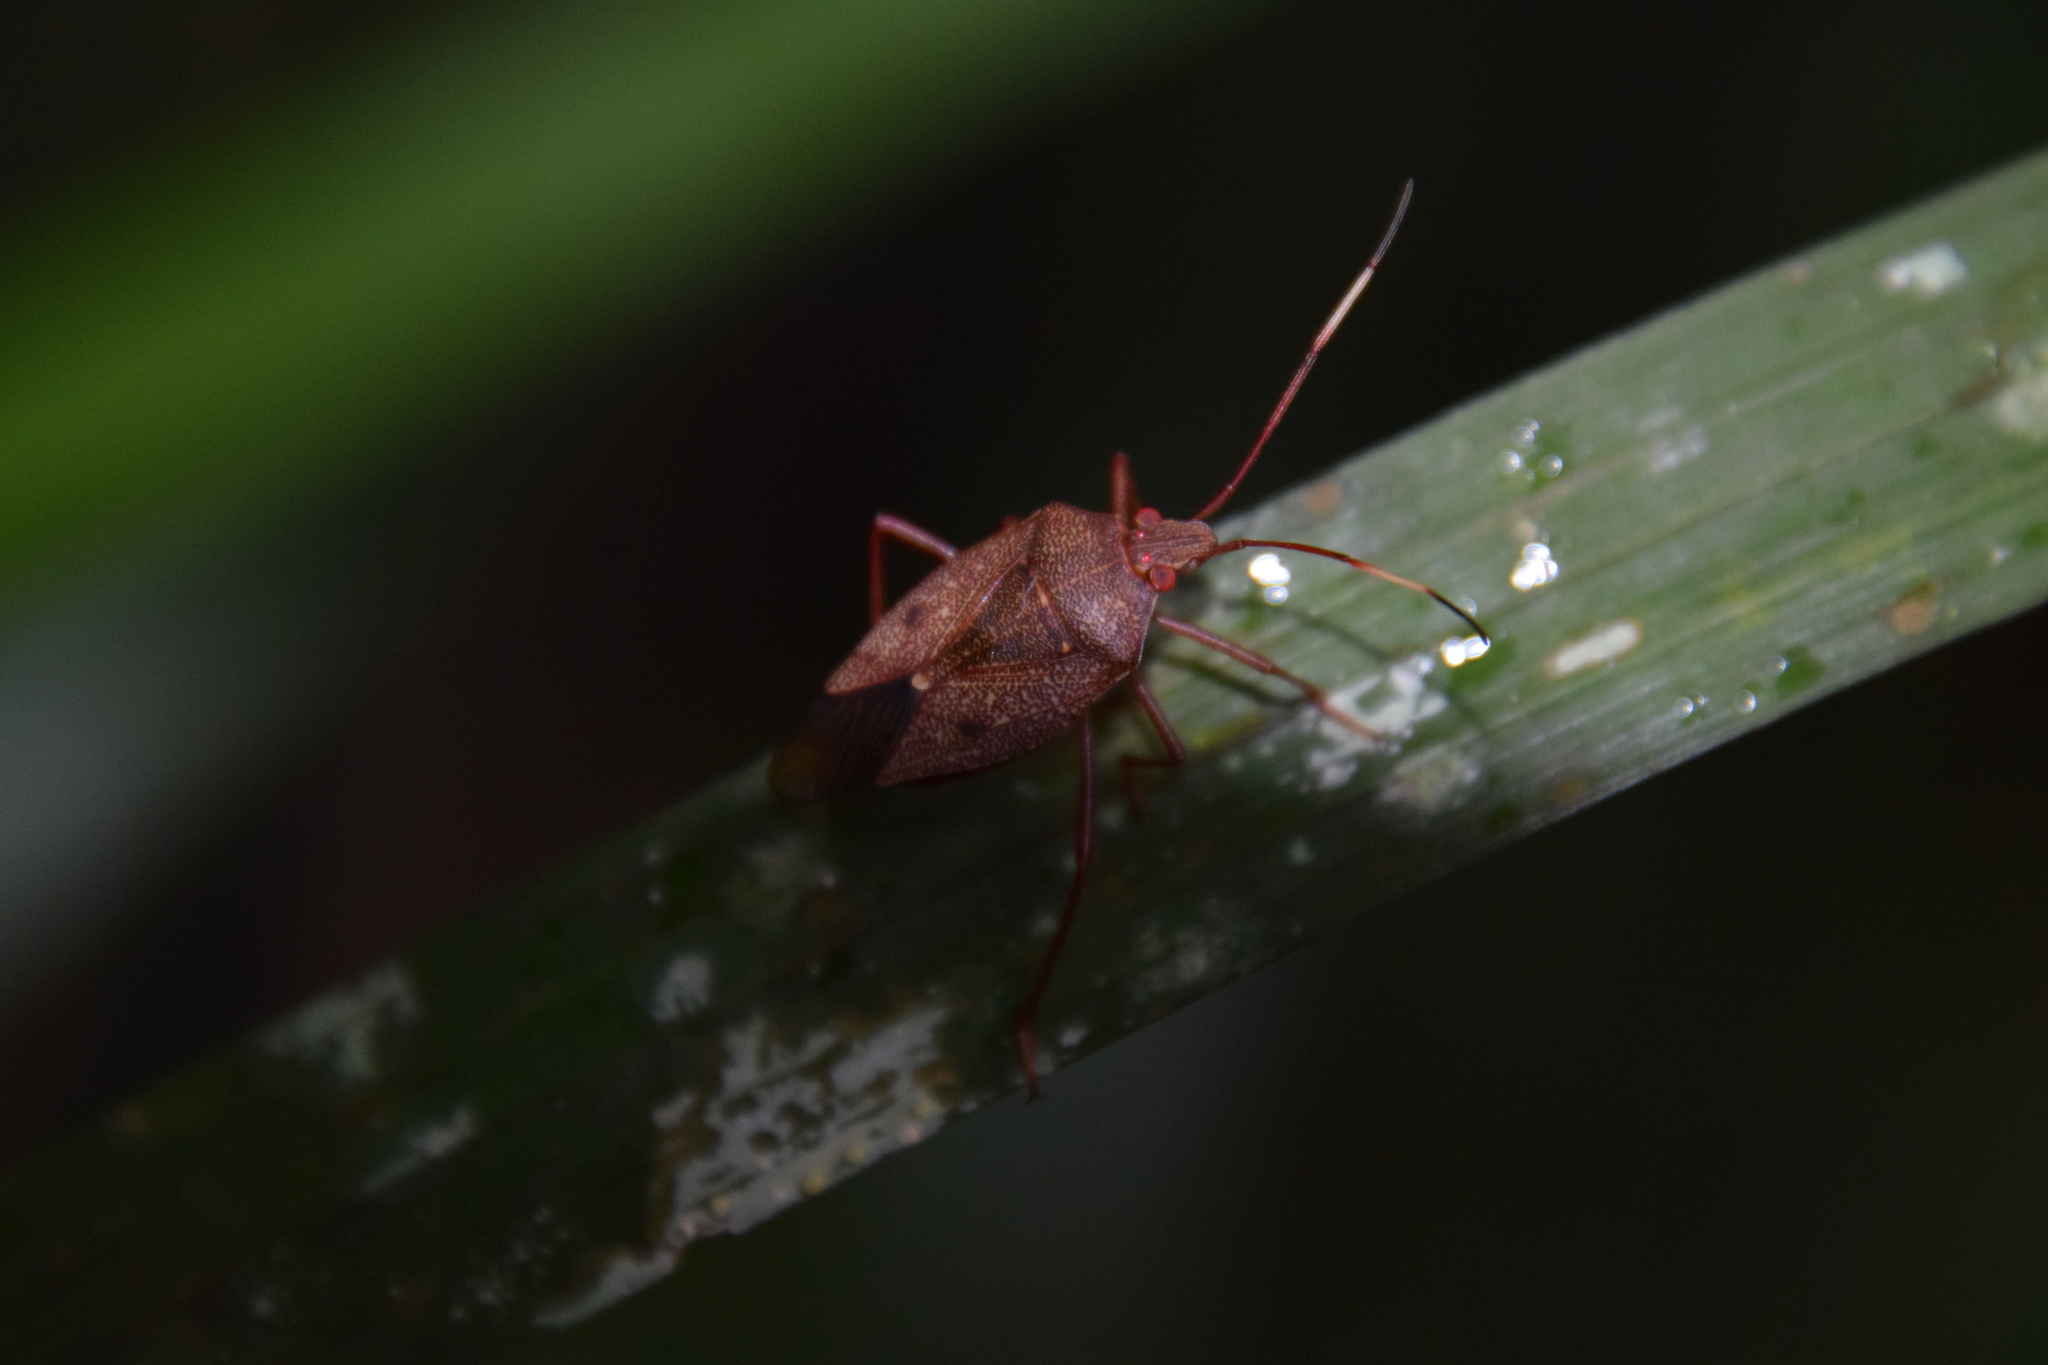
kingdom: Animalia
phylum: Arthropoda
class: Insecta
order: Hemiptera
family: Pentatomidae
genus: Poecilometis
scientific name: Poecilometis
